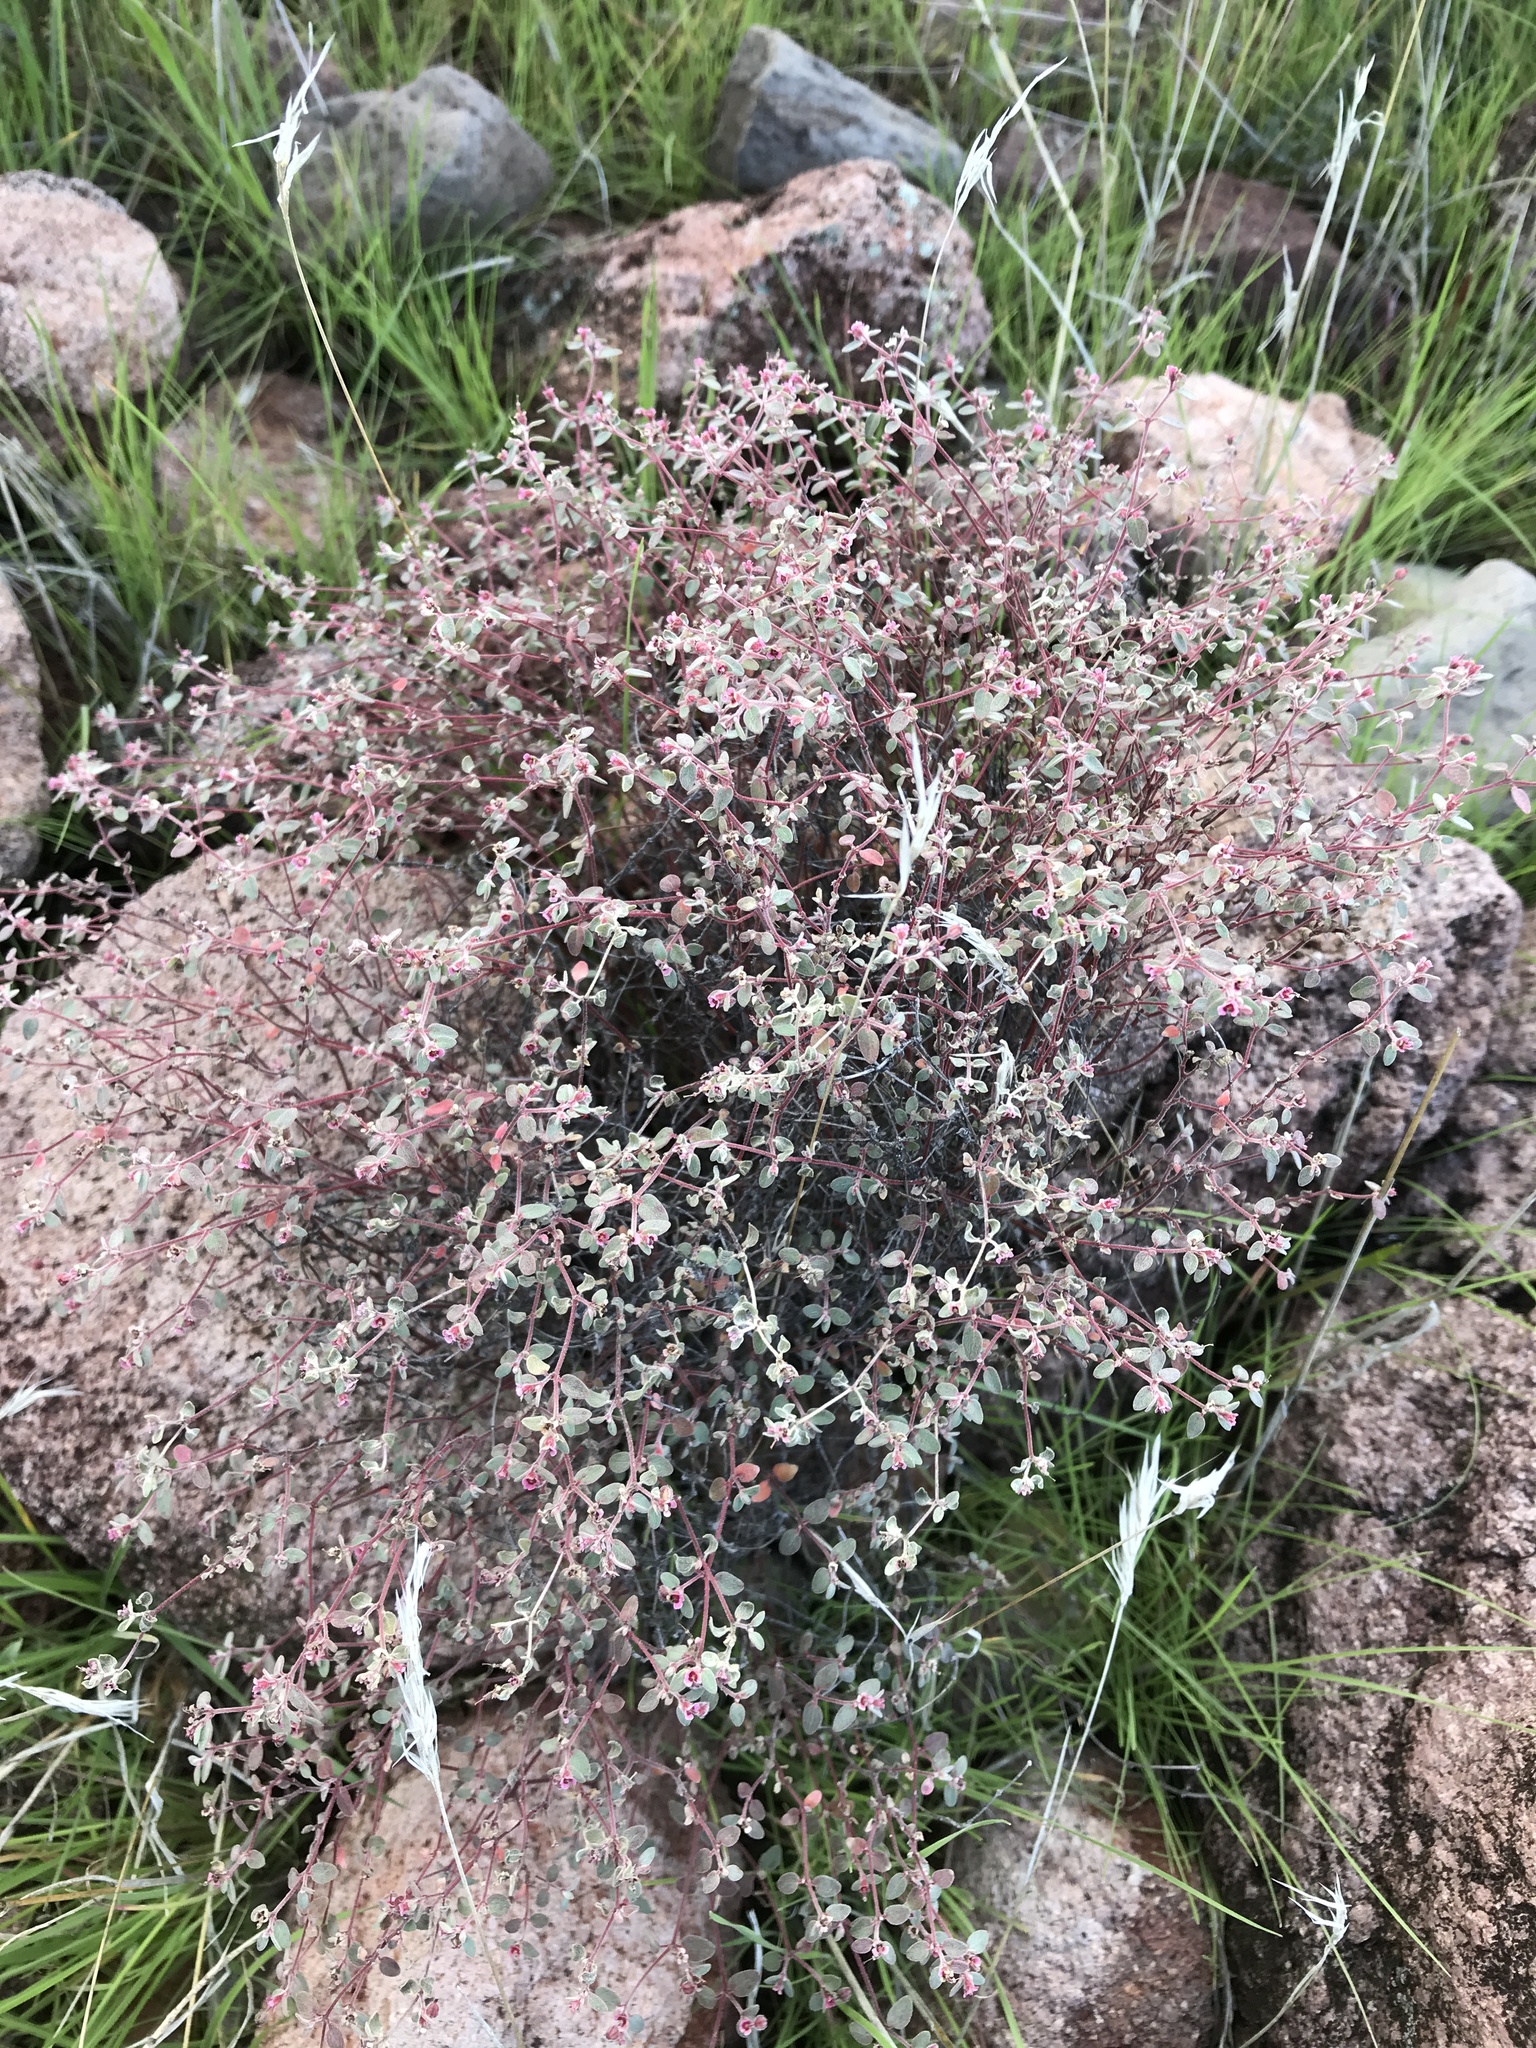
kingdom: Plantae
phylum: Tracheophyta
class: Magnoliopsida
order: Malpighiales
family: Euphorbiaceae
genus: Euphorbia
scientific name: Euphorbia melanadenia
